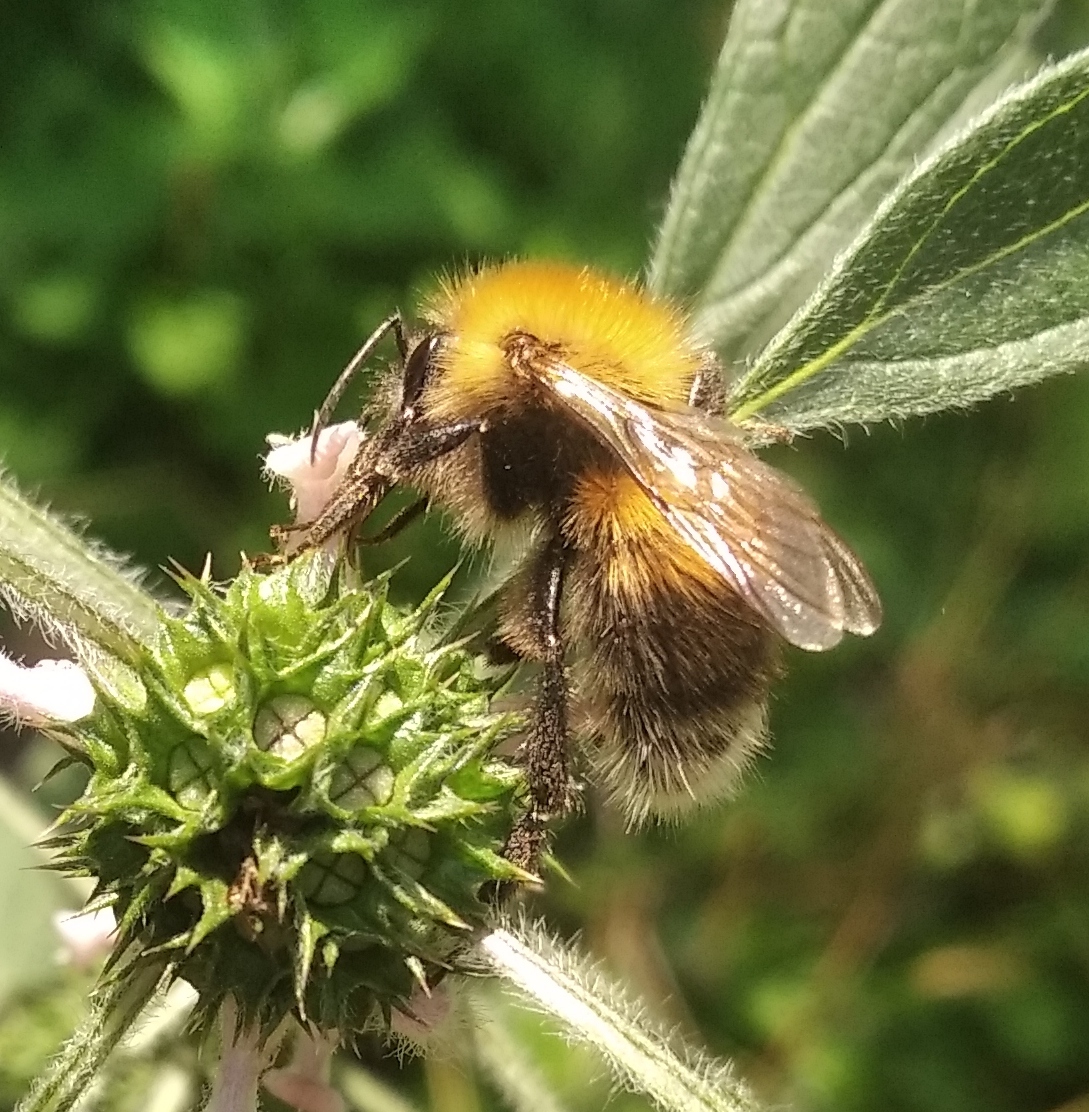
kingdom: Animalia
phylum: Arthropoda
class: Insecta
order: Hymenoptera
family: Apidae
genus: Bombus
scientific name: Bombus hypnorum
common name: New garden bumblebee
